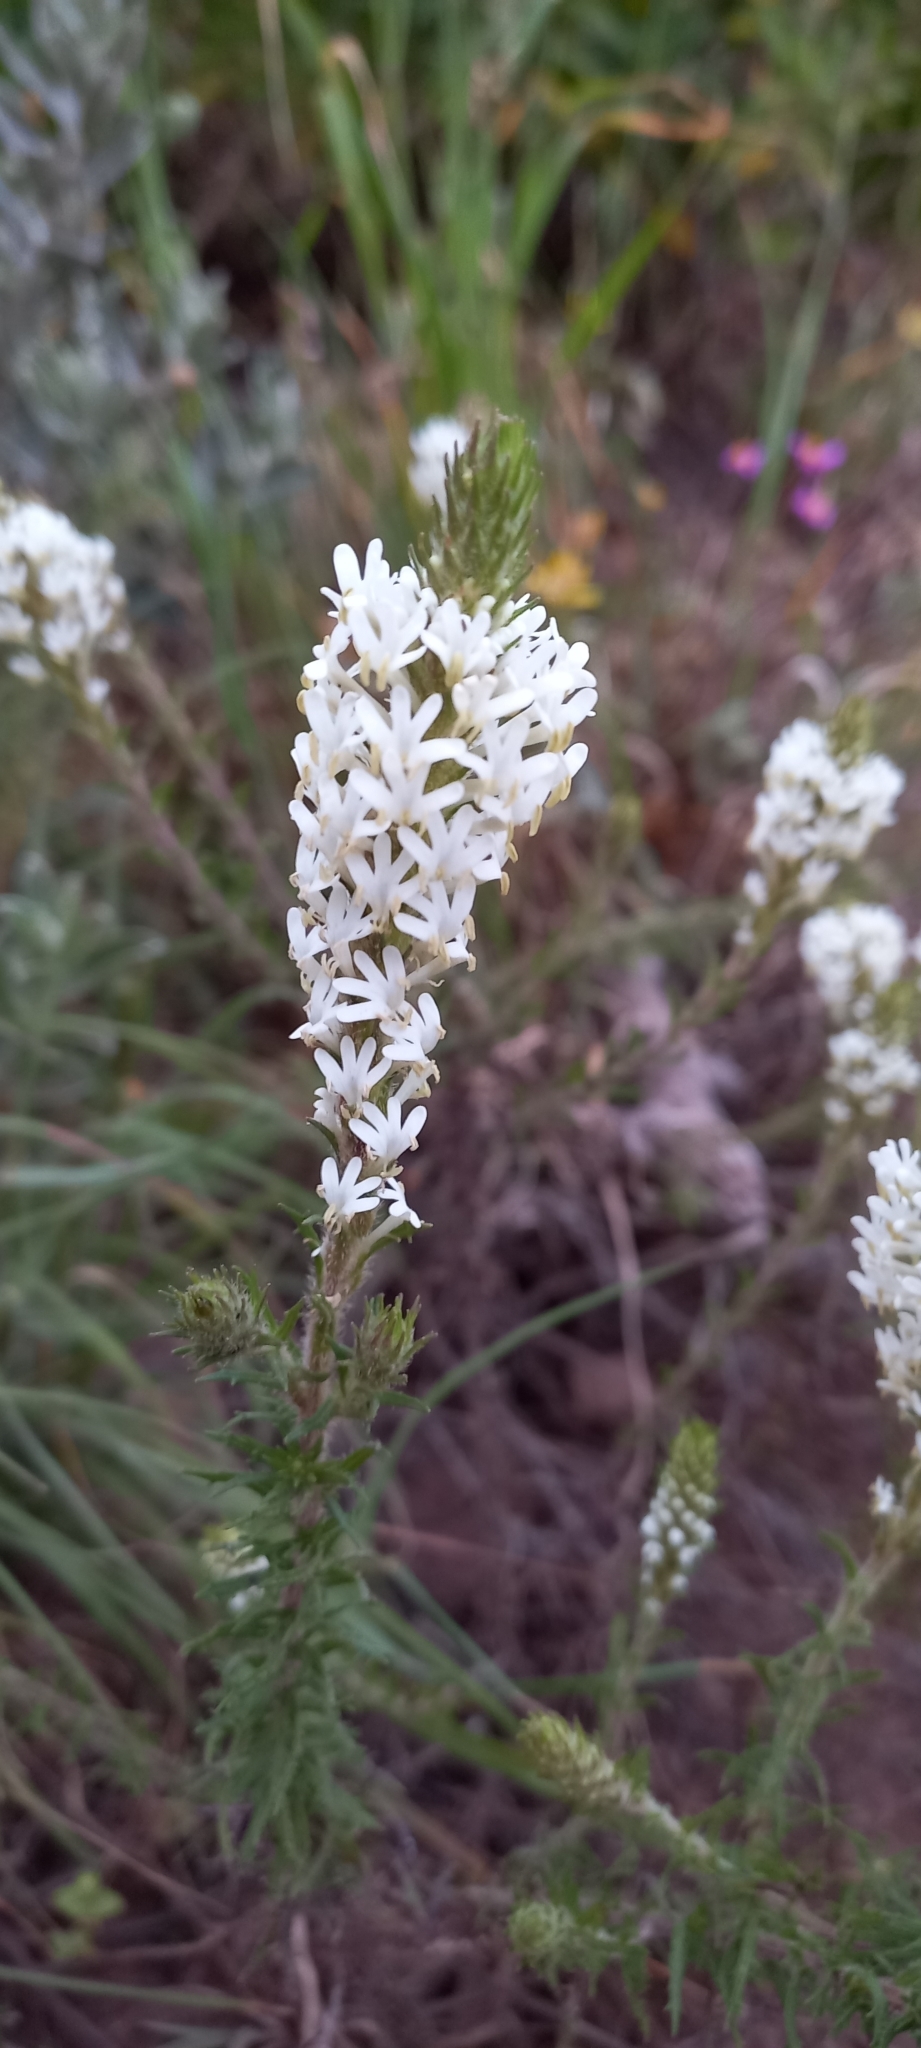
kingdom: Plantae
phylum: Tracheophyta
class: Magnoliopsida
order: Lamiales
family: Scrophulariaceae
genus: Dischisma
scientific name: Dischisma ciliatum
